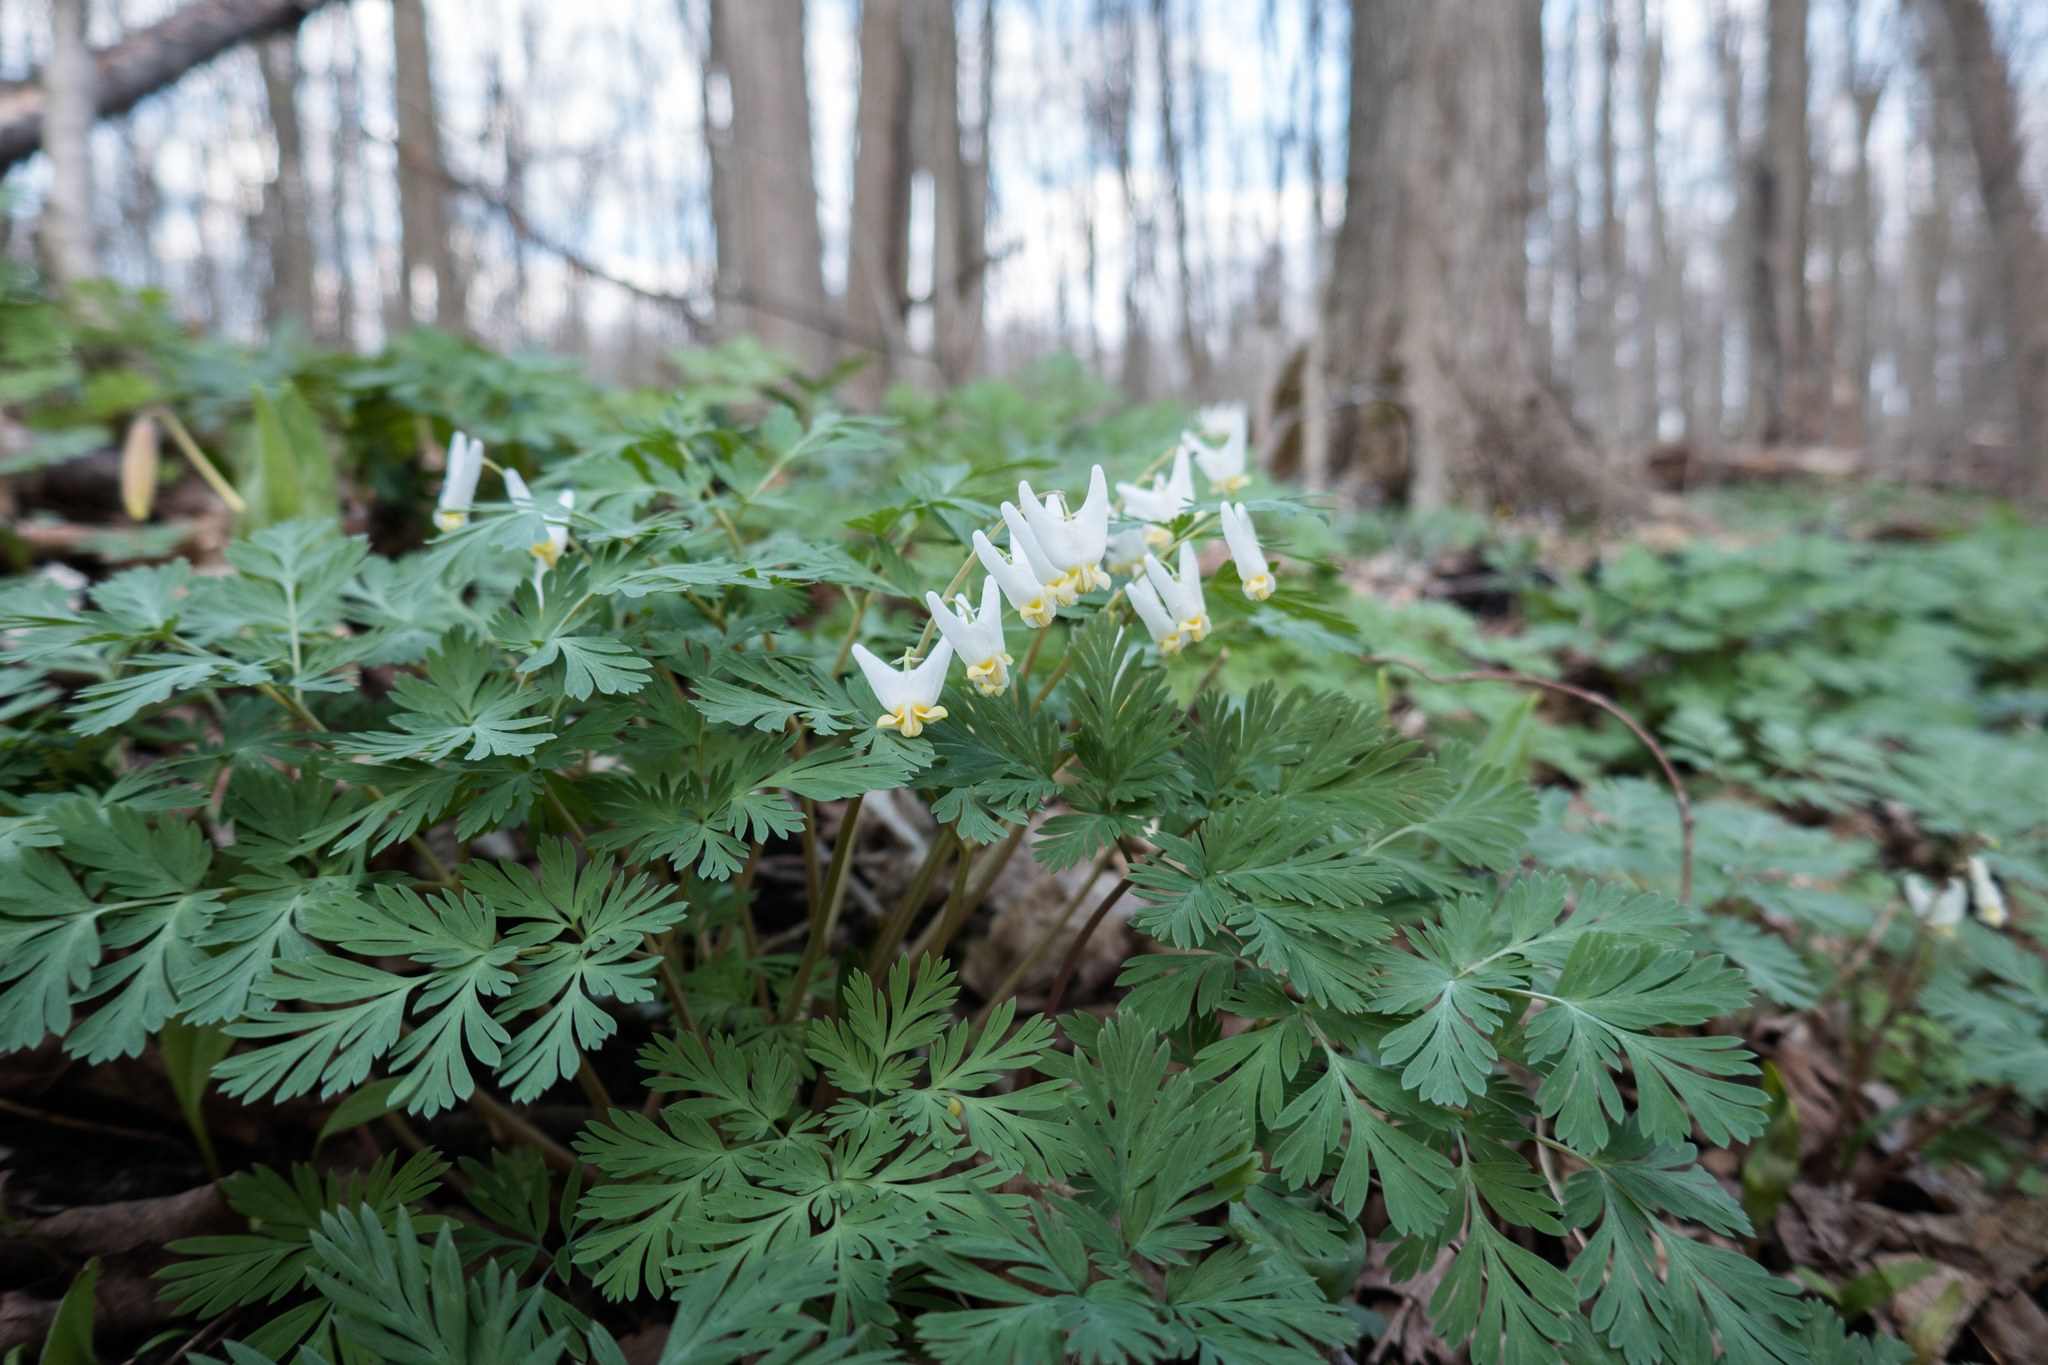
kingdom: Plantae
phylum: Tracheophyta
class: Magnoliopsida
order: Ranunculales
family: Papaveraceae
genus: Dicentra
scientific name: Dicentra cucullaria
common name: Dutchman's breeches
